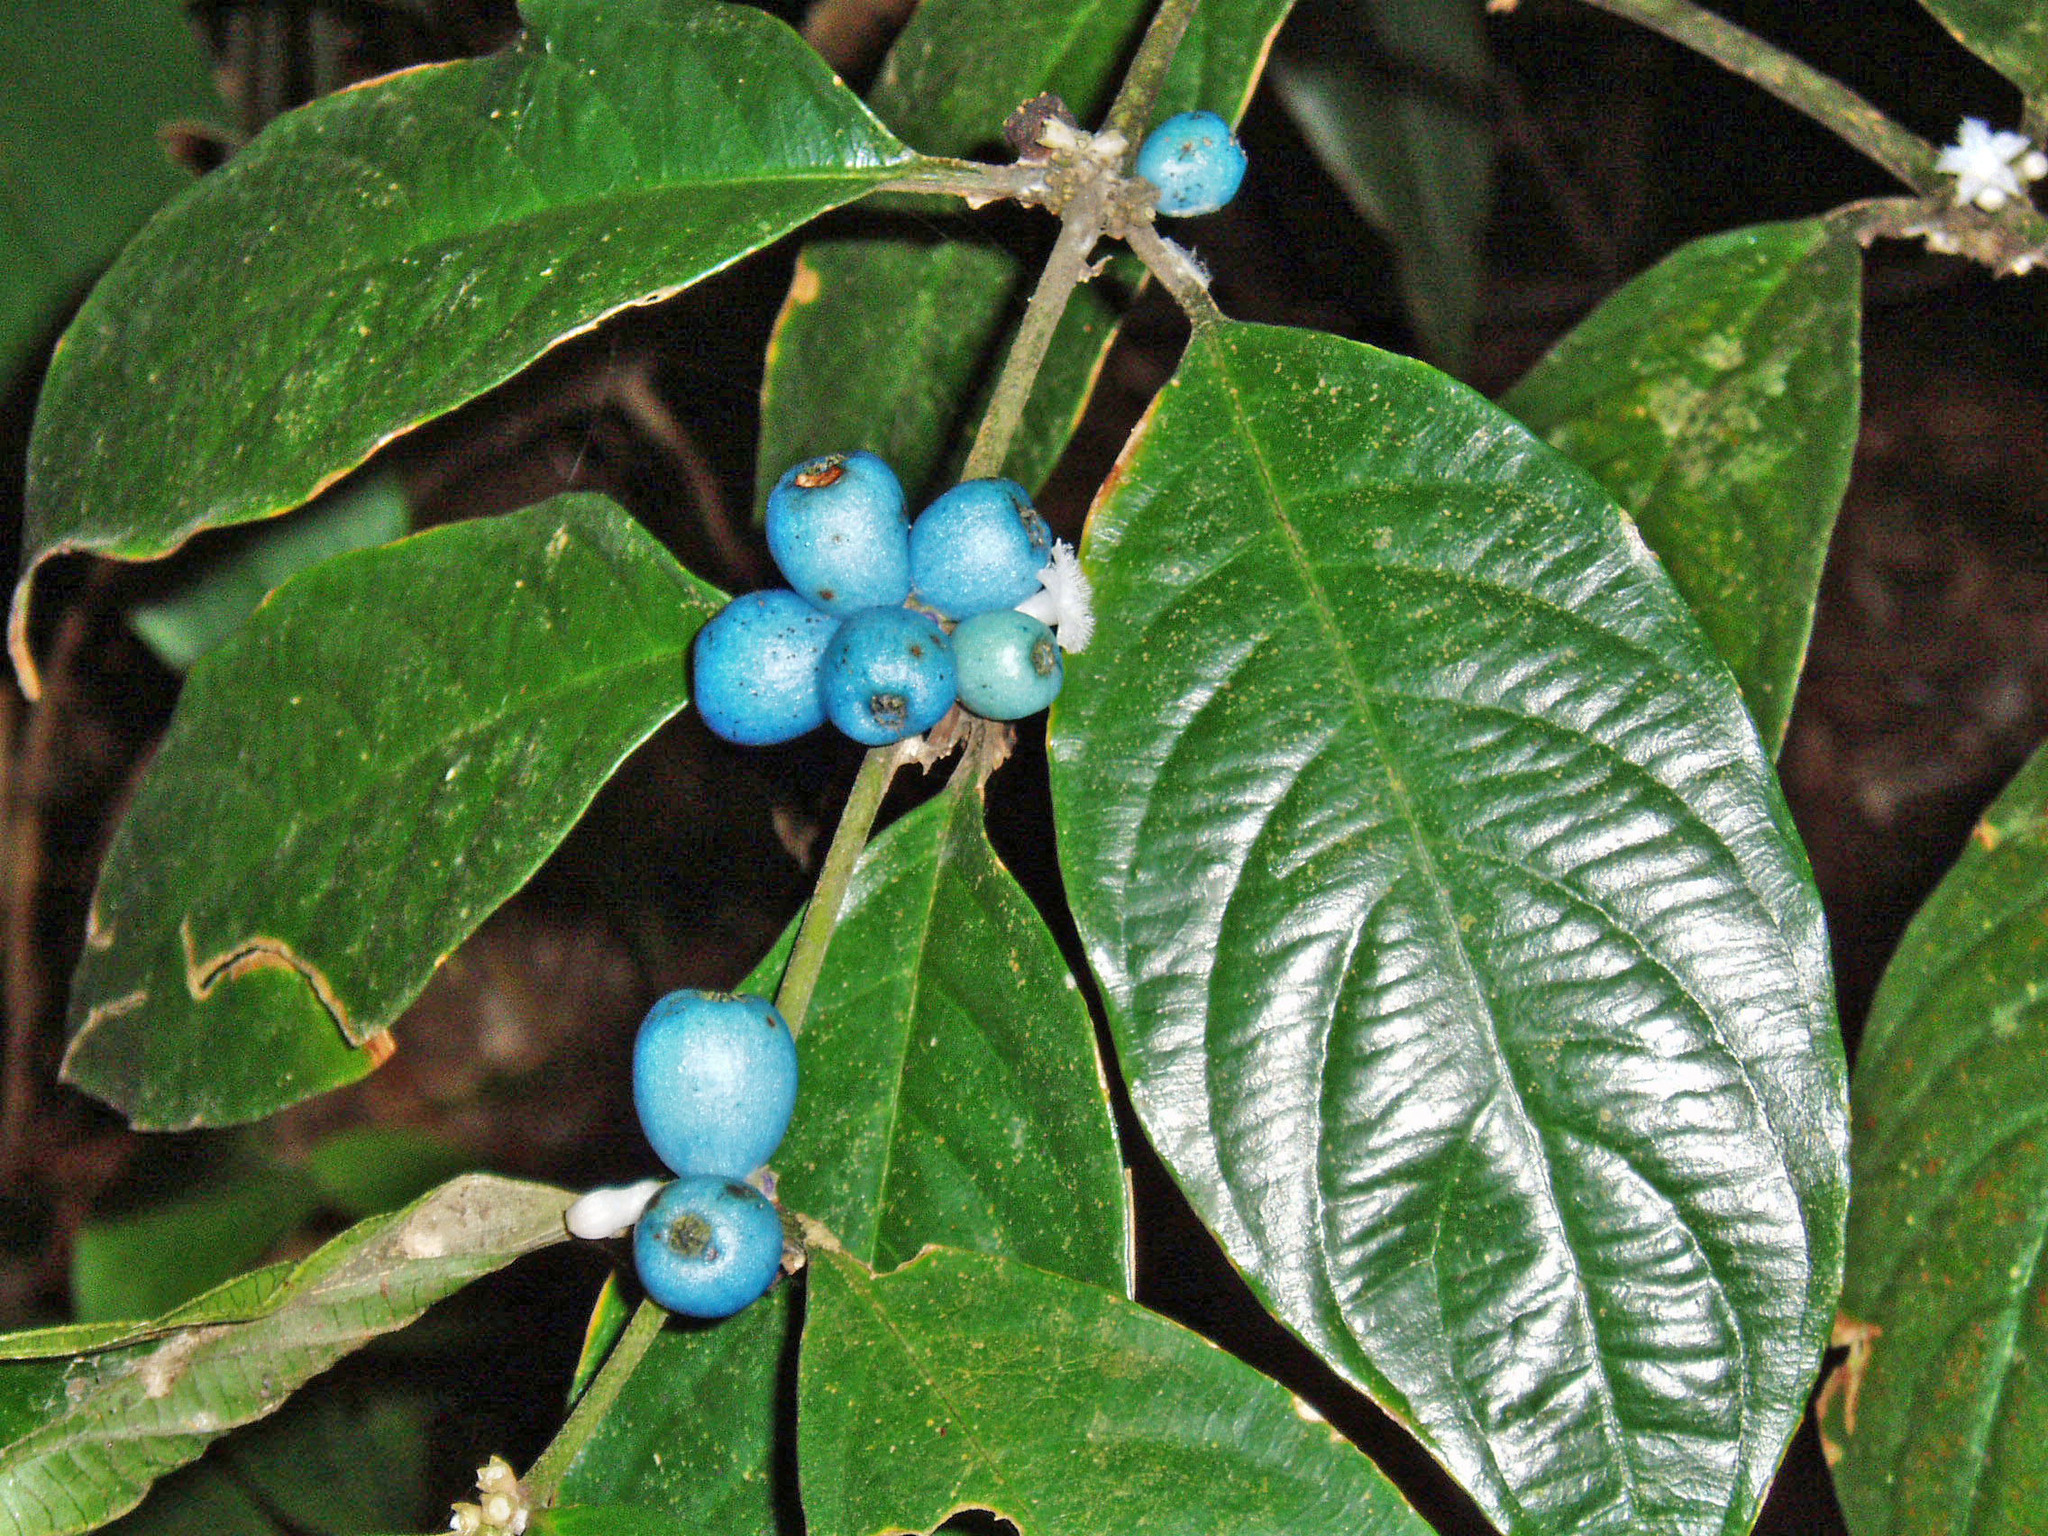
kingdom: Plantae
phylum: Tracheophyta
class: Magnoliopsida
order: Gentianales
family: Rubiaceae
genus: Lasianthus
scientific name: Lasianthus fordii
